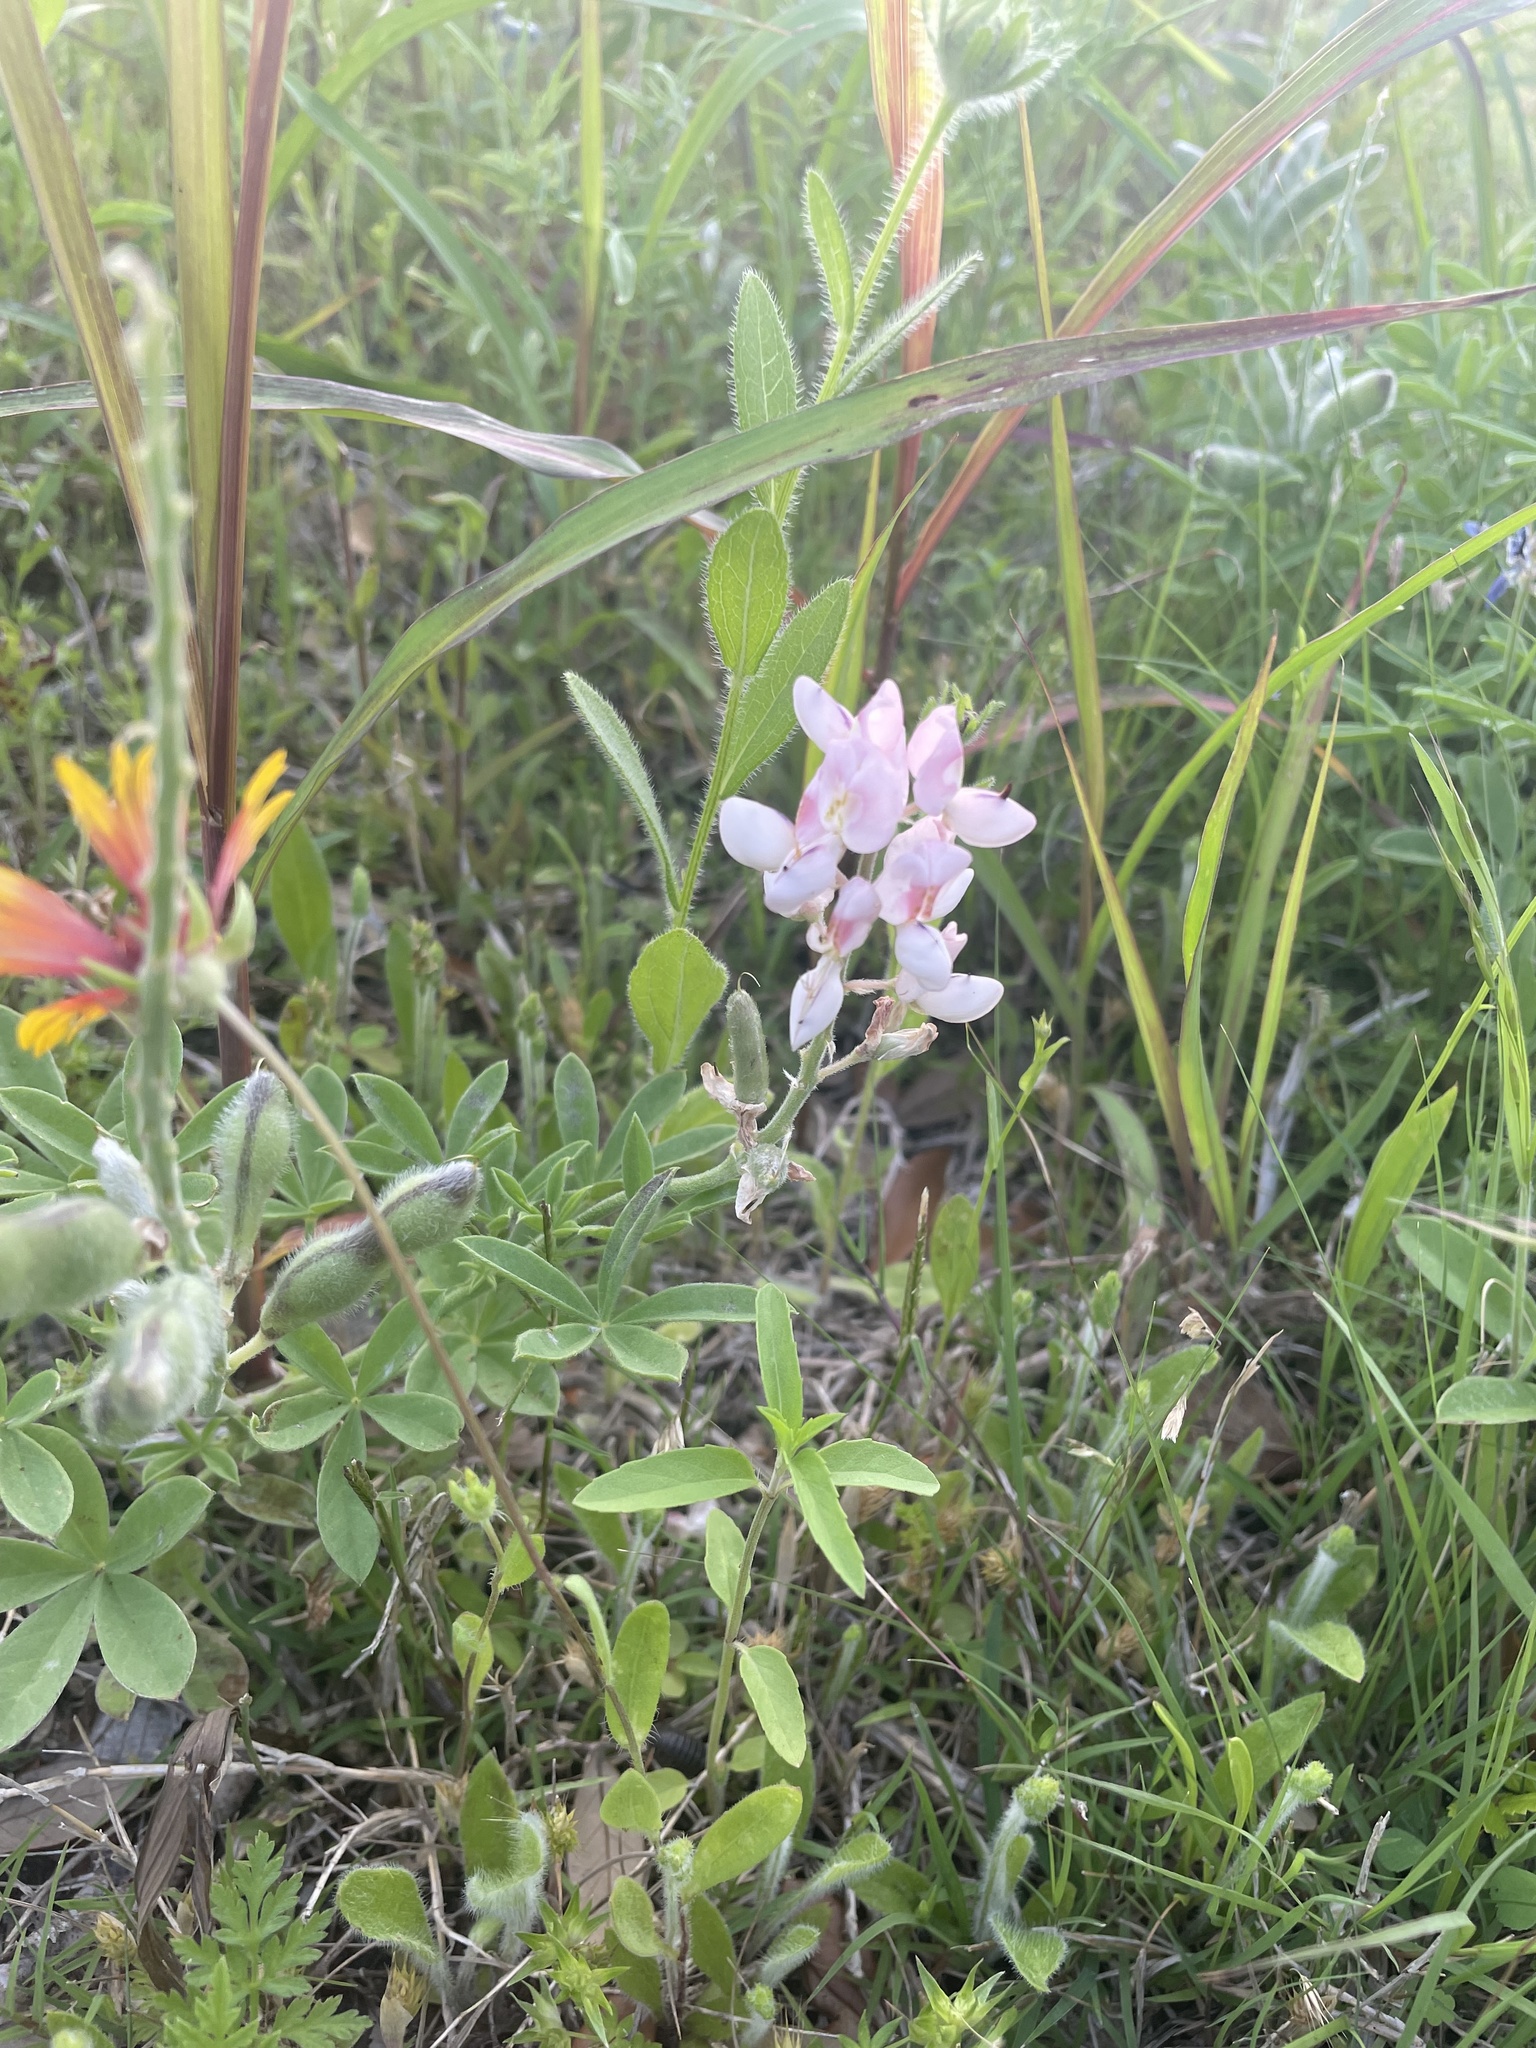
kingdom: Plantae
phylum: Tracheophyta
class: Magnoliopsida
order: Fabales
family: Fabaceae
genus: Lupinus
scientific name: Lupinus texensis
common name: Texas bluebonnet
